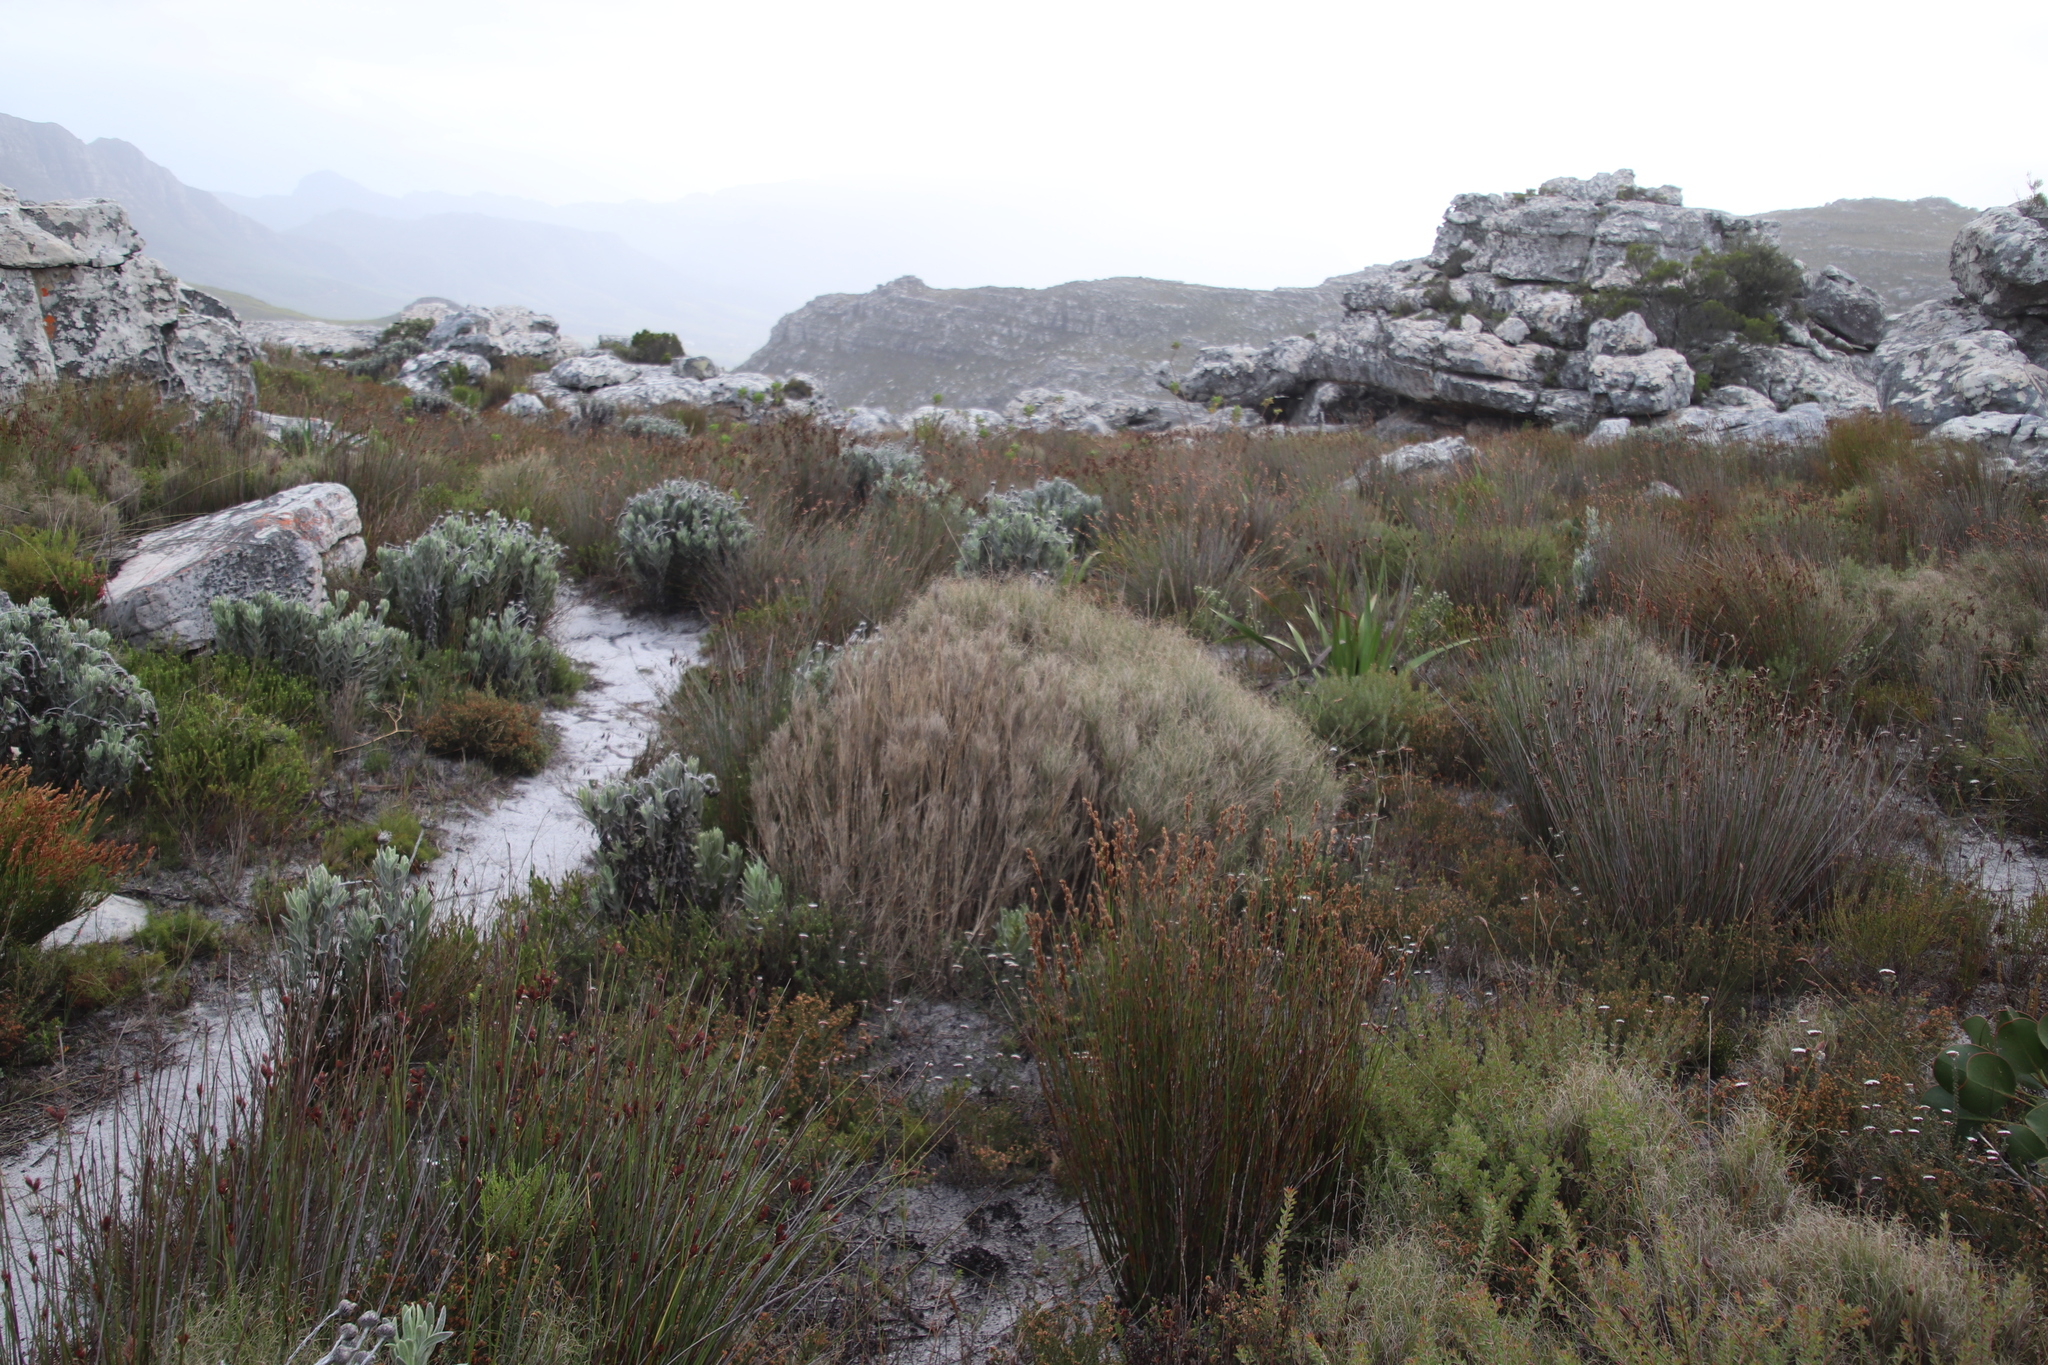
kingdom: Plantae
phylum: Tracheophyta
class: Liliopsida
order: Poales
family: Poaceae
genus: Pseudopentameris
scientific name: Pseudopentameris macrantha
